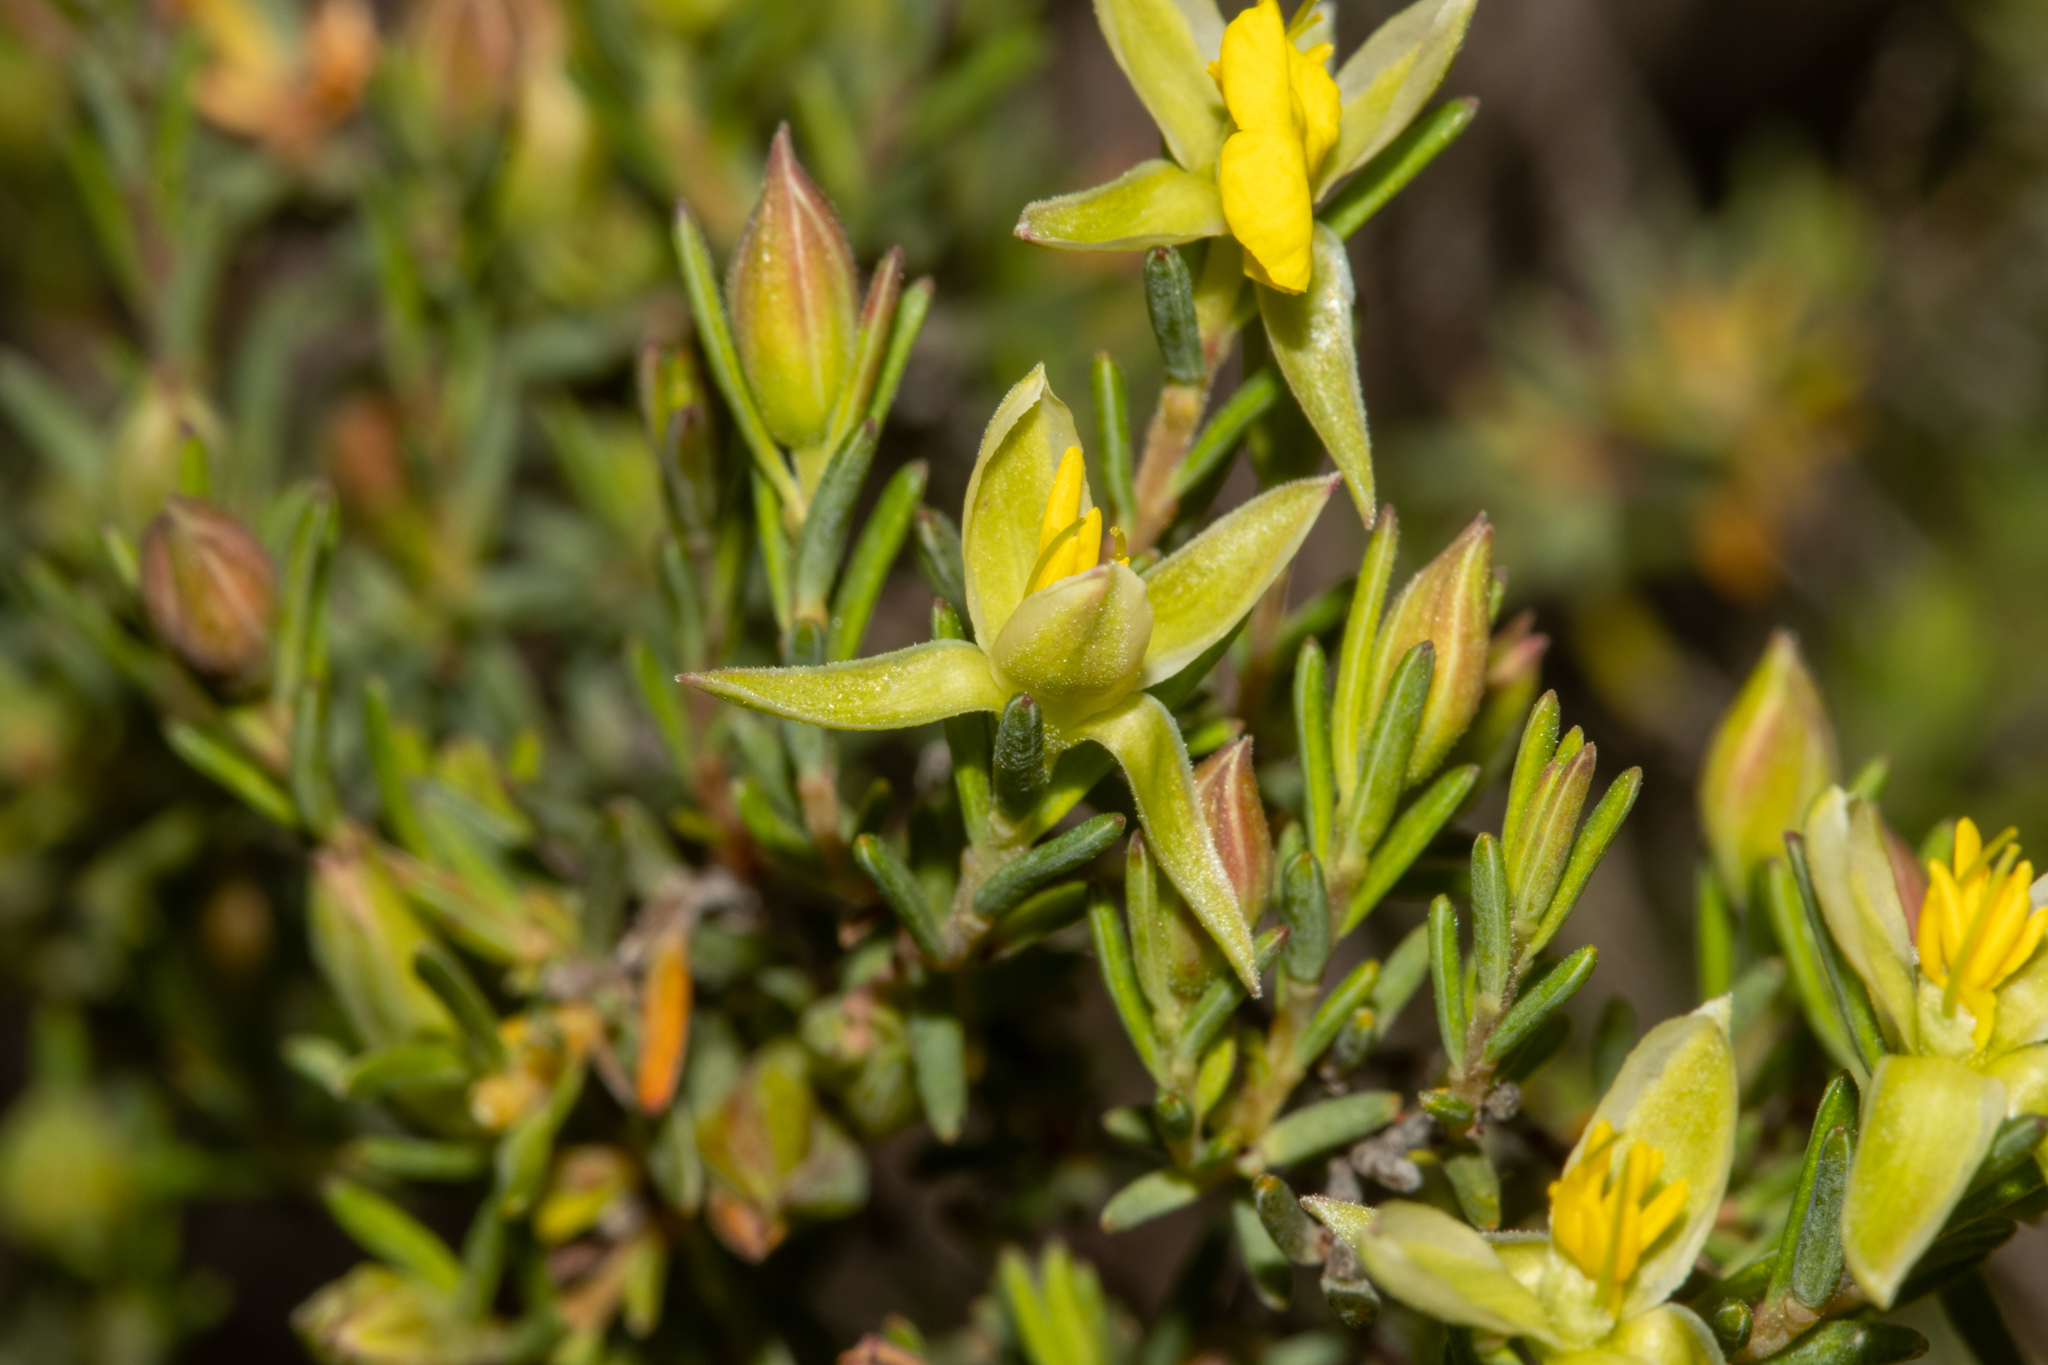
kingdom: Plantae
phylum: Tracheophyta
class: Magnoliopsida
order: Dilleniales
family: Dilleniaceae
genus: Hibbertia
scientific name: Hibbertia devitata
